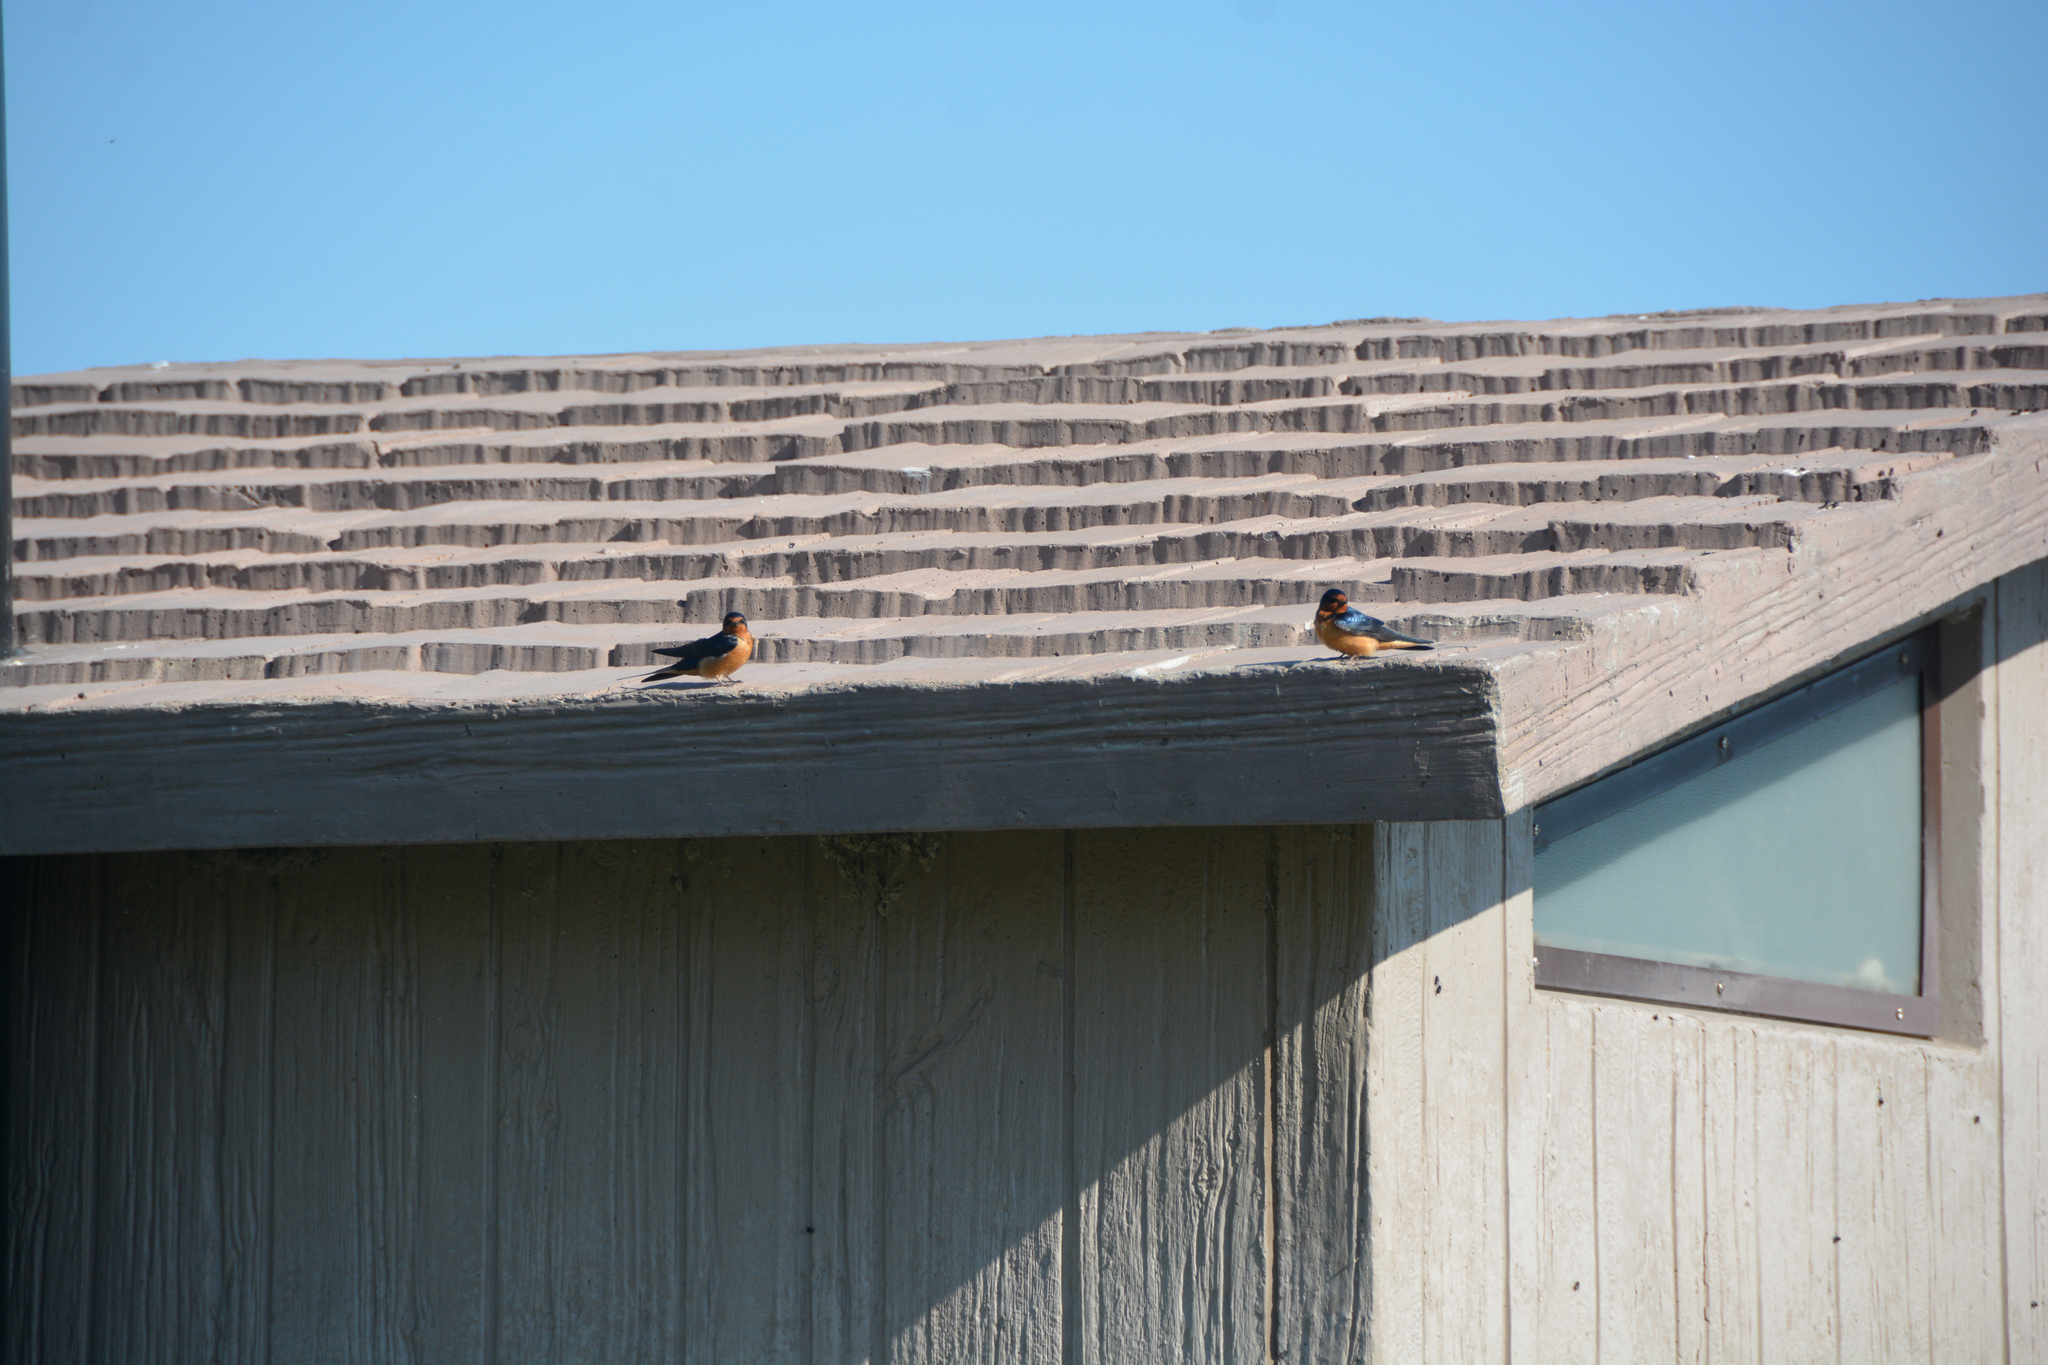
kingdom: Animalia
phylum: Chordata
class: Aves
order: Passeriformes
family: Hirundinidae
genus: Hirundo
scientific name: Hirundo rustica
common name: Barn swallow
